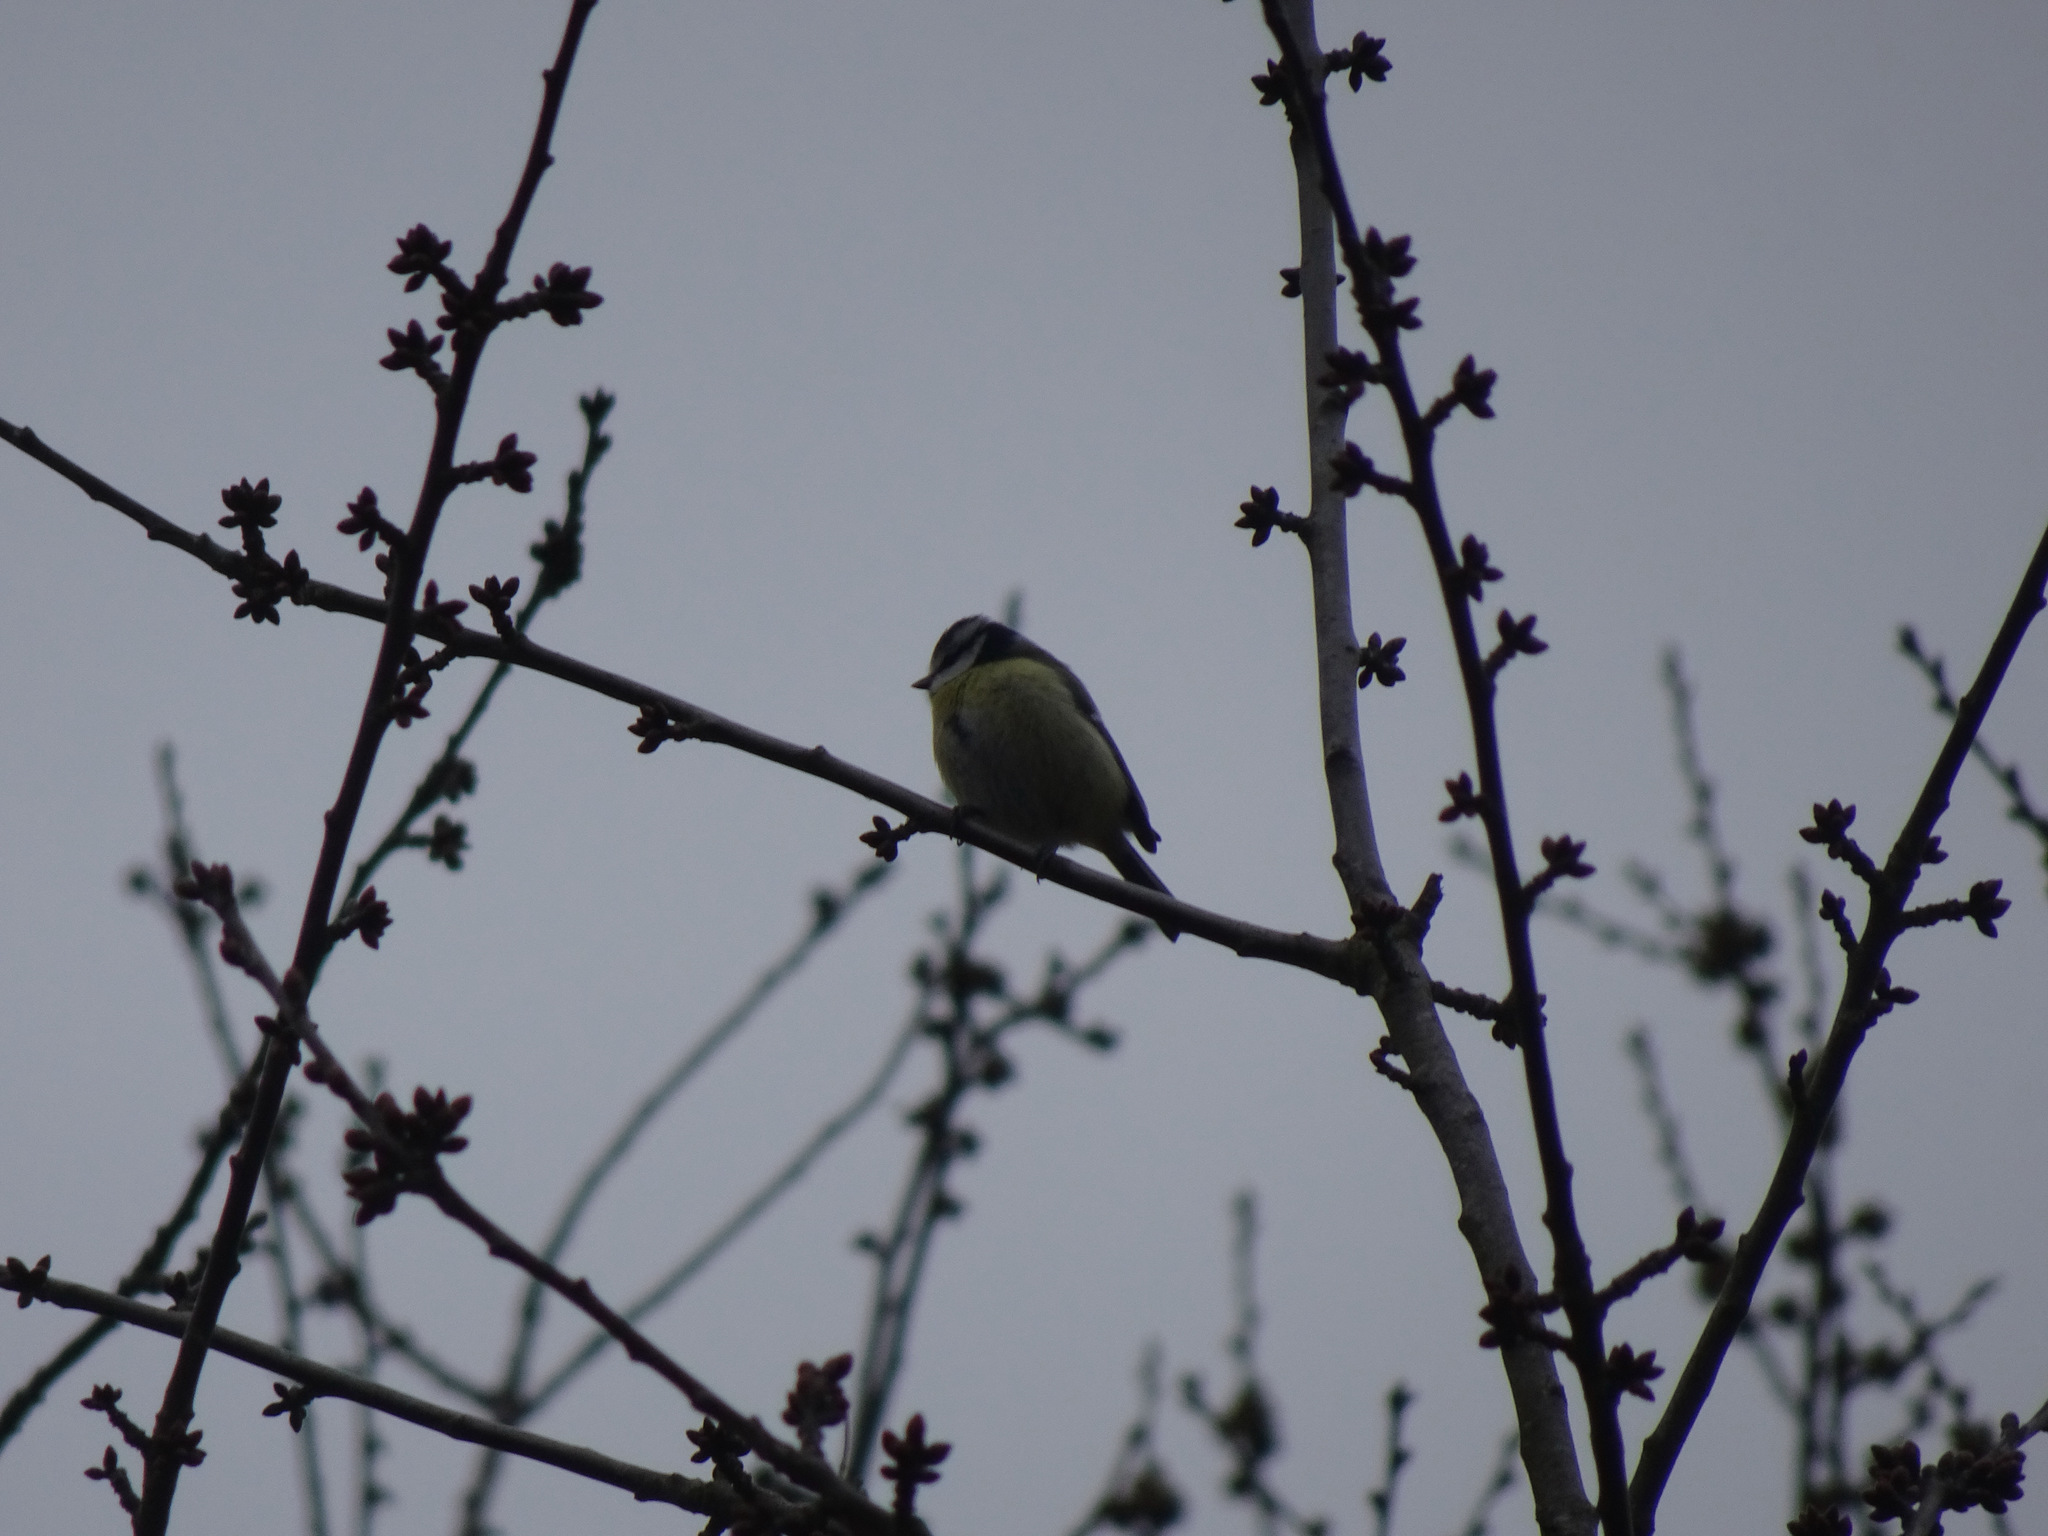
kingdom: Animalia
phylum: Chordata
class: Aves
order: Passeriformes
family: Paridae
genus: Cyanistes
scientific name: Cyanistes caeruleus
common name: Eurasian blue tit
